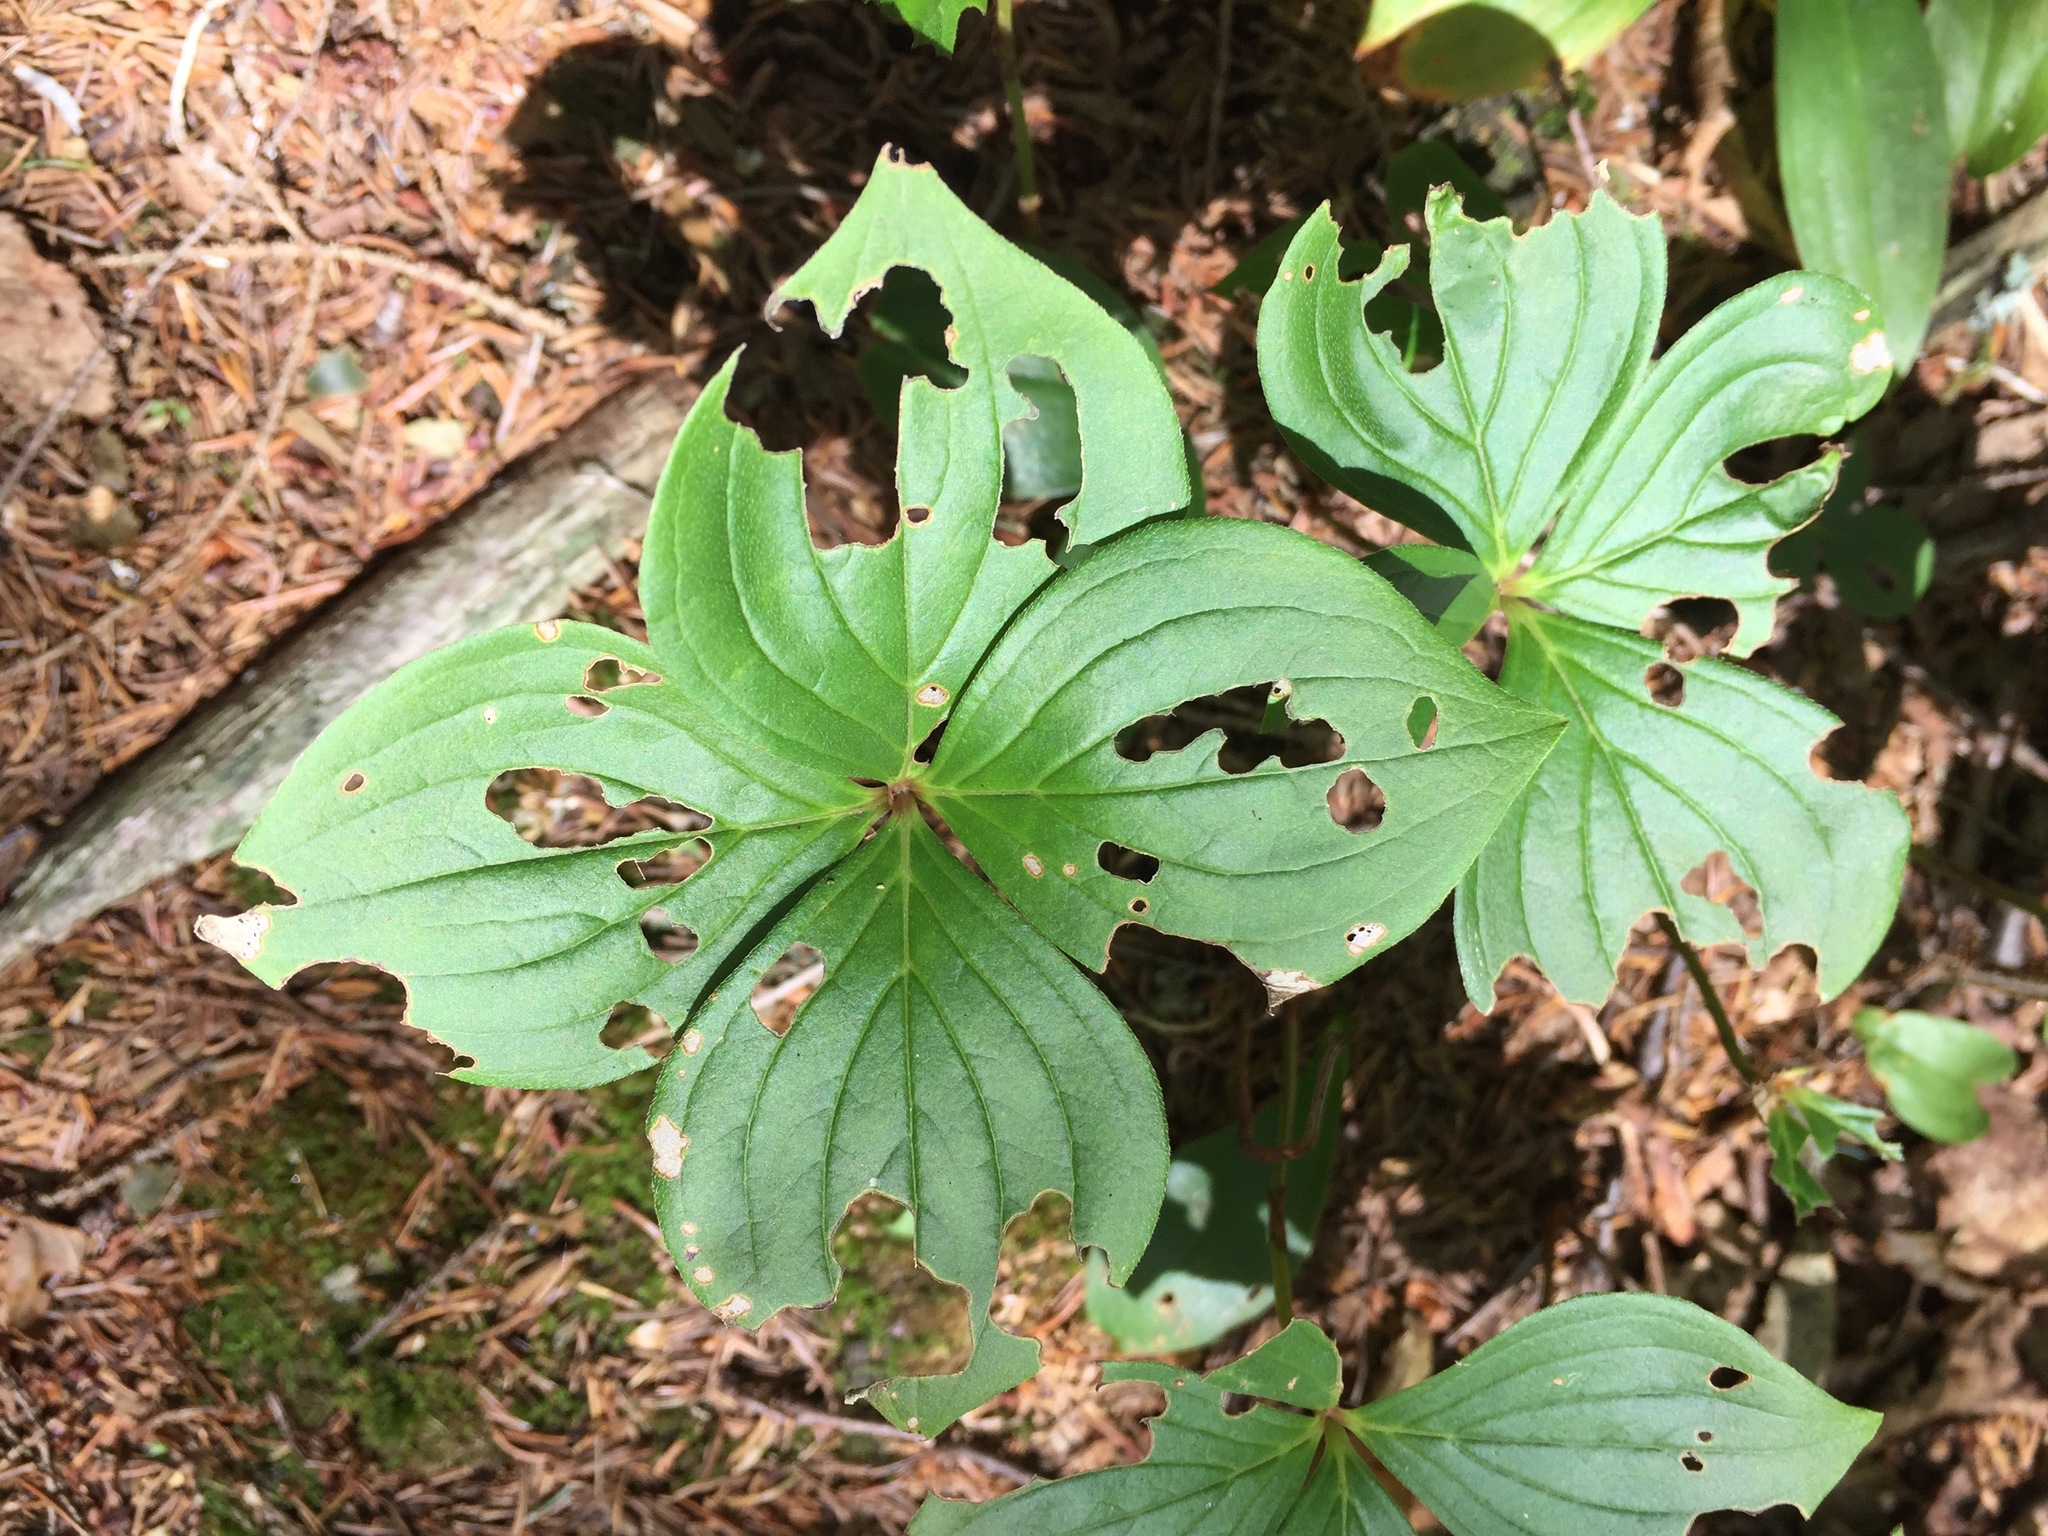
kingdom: Plantae
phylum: Tracheophyta
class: Magnoliopsida
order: Cornales
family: Cornaceae
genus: Cornus
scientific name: Cornus canadensis
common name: Creeping dogwood
